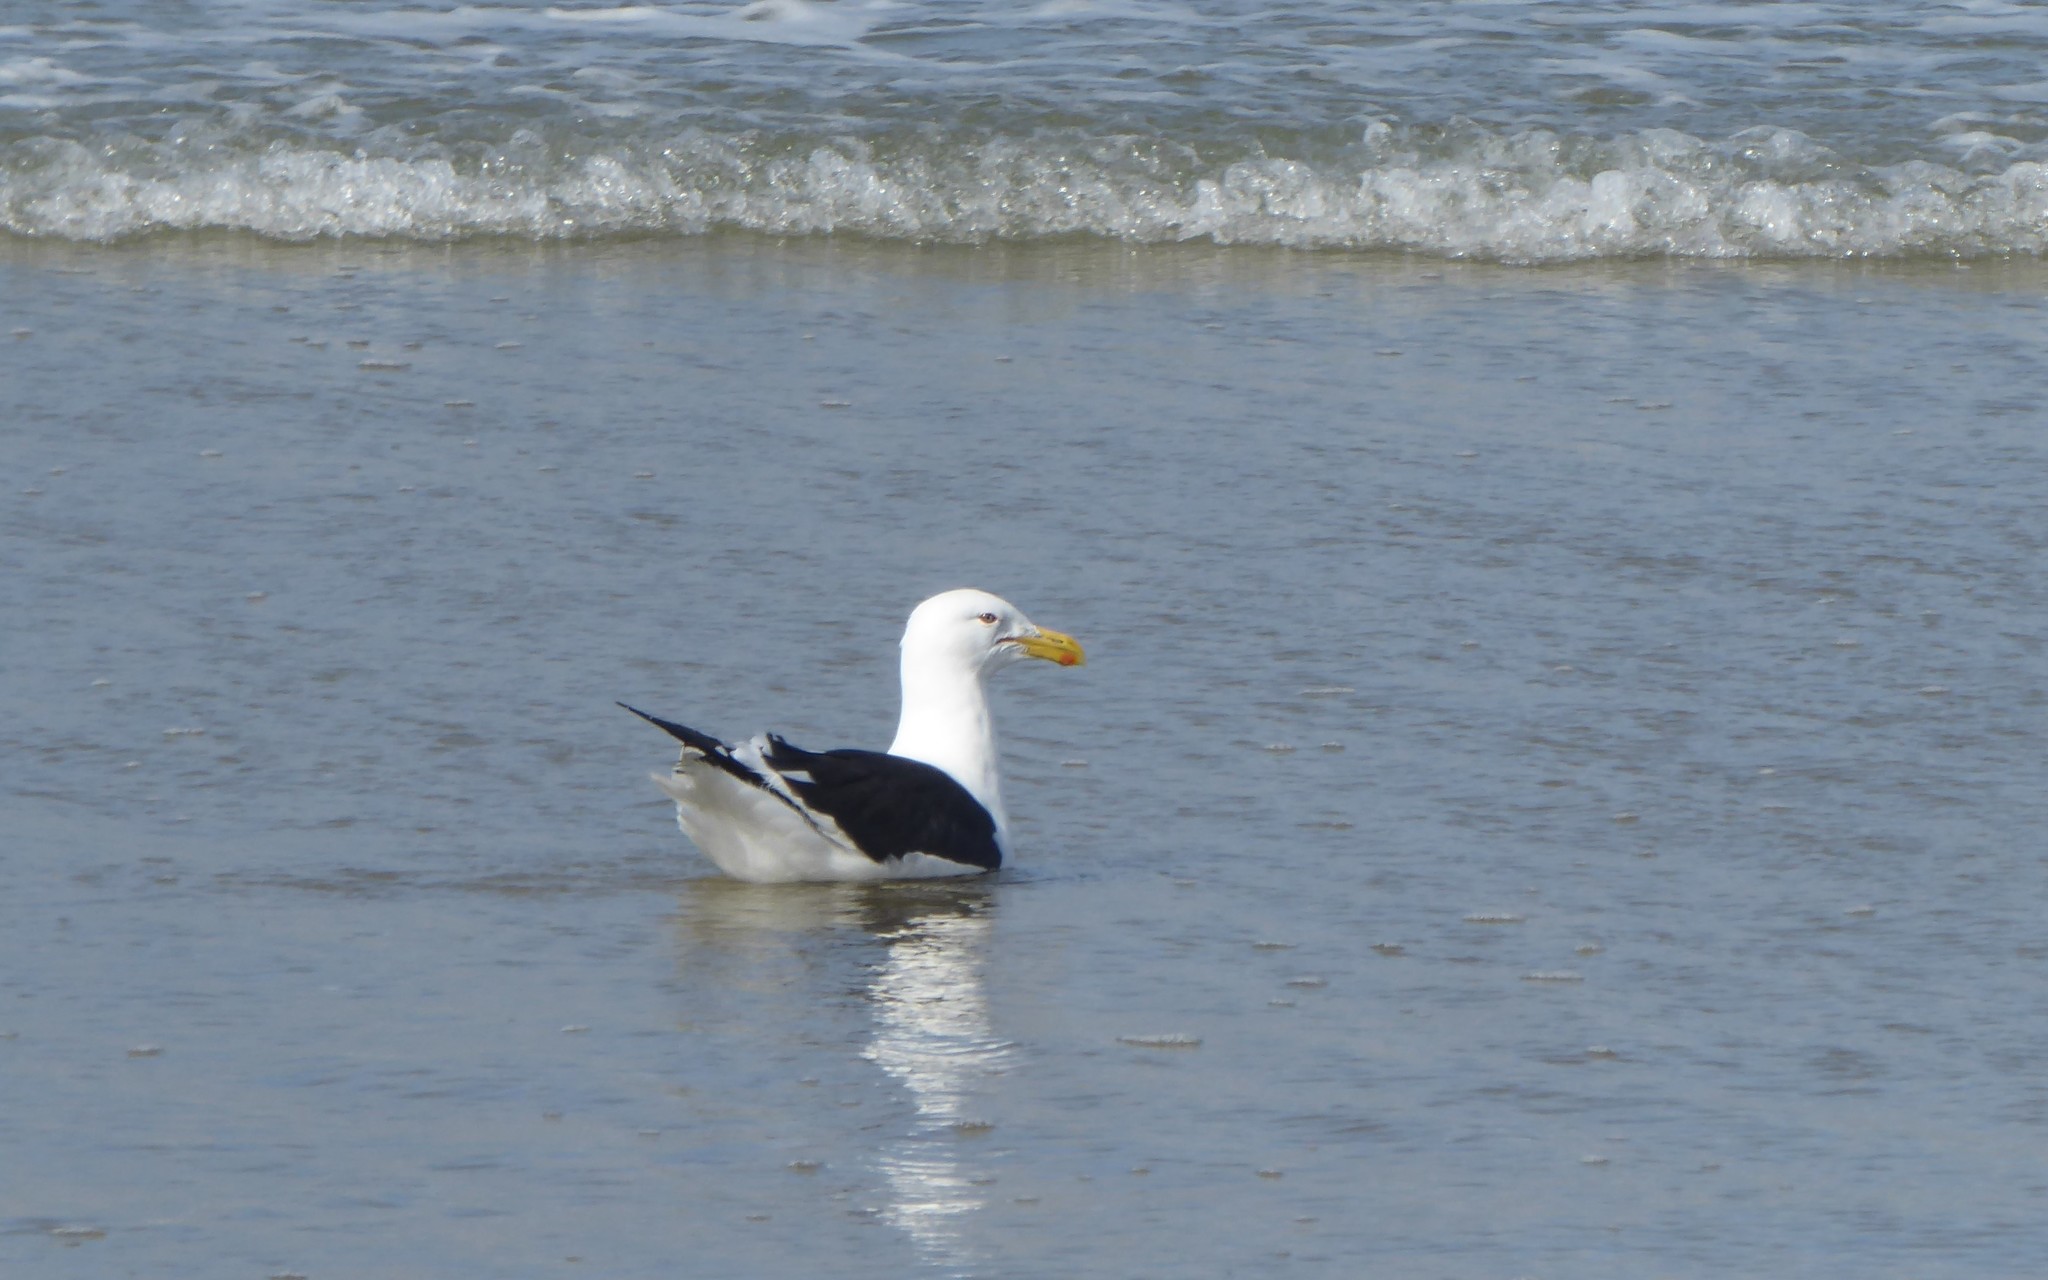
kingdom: Animalia
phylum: Chordata
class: Aves
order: Charadriiformes
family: Laridae
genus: Larus
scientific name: Larus dominicanus
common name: Kelp gull
